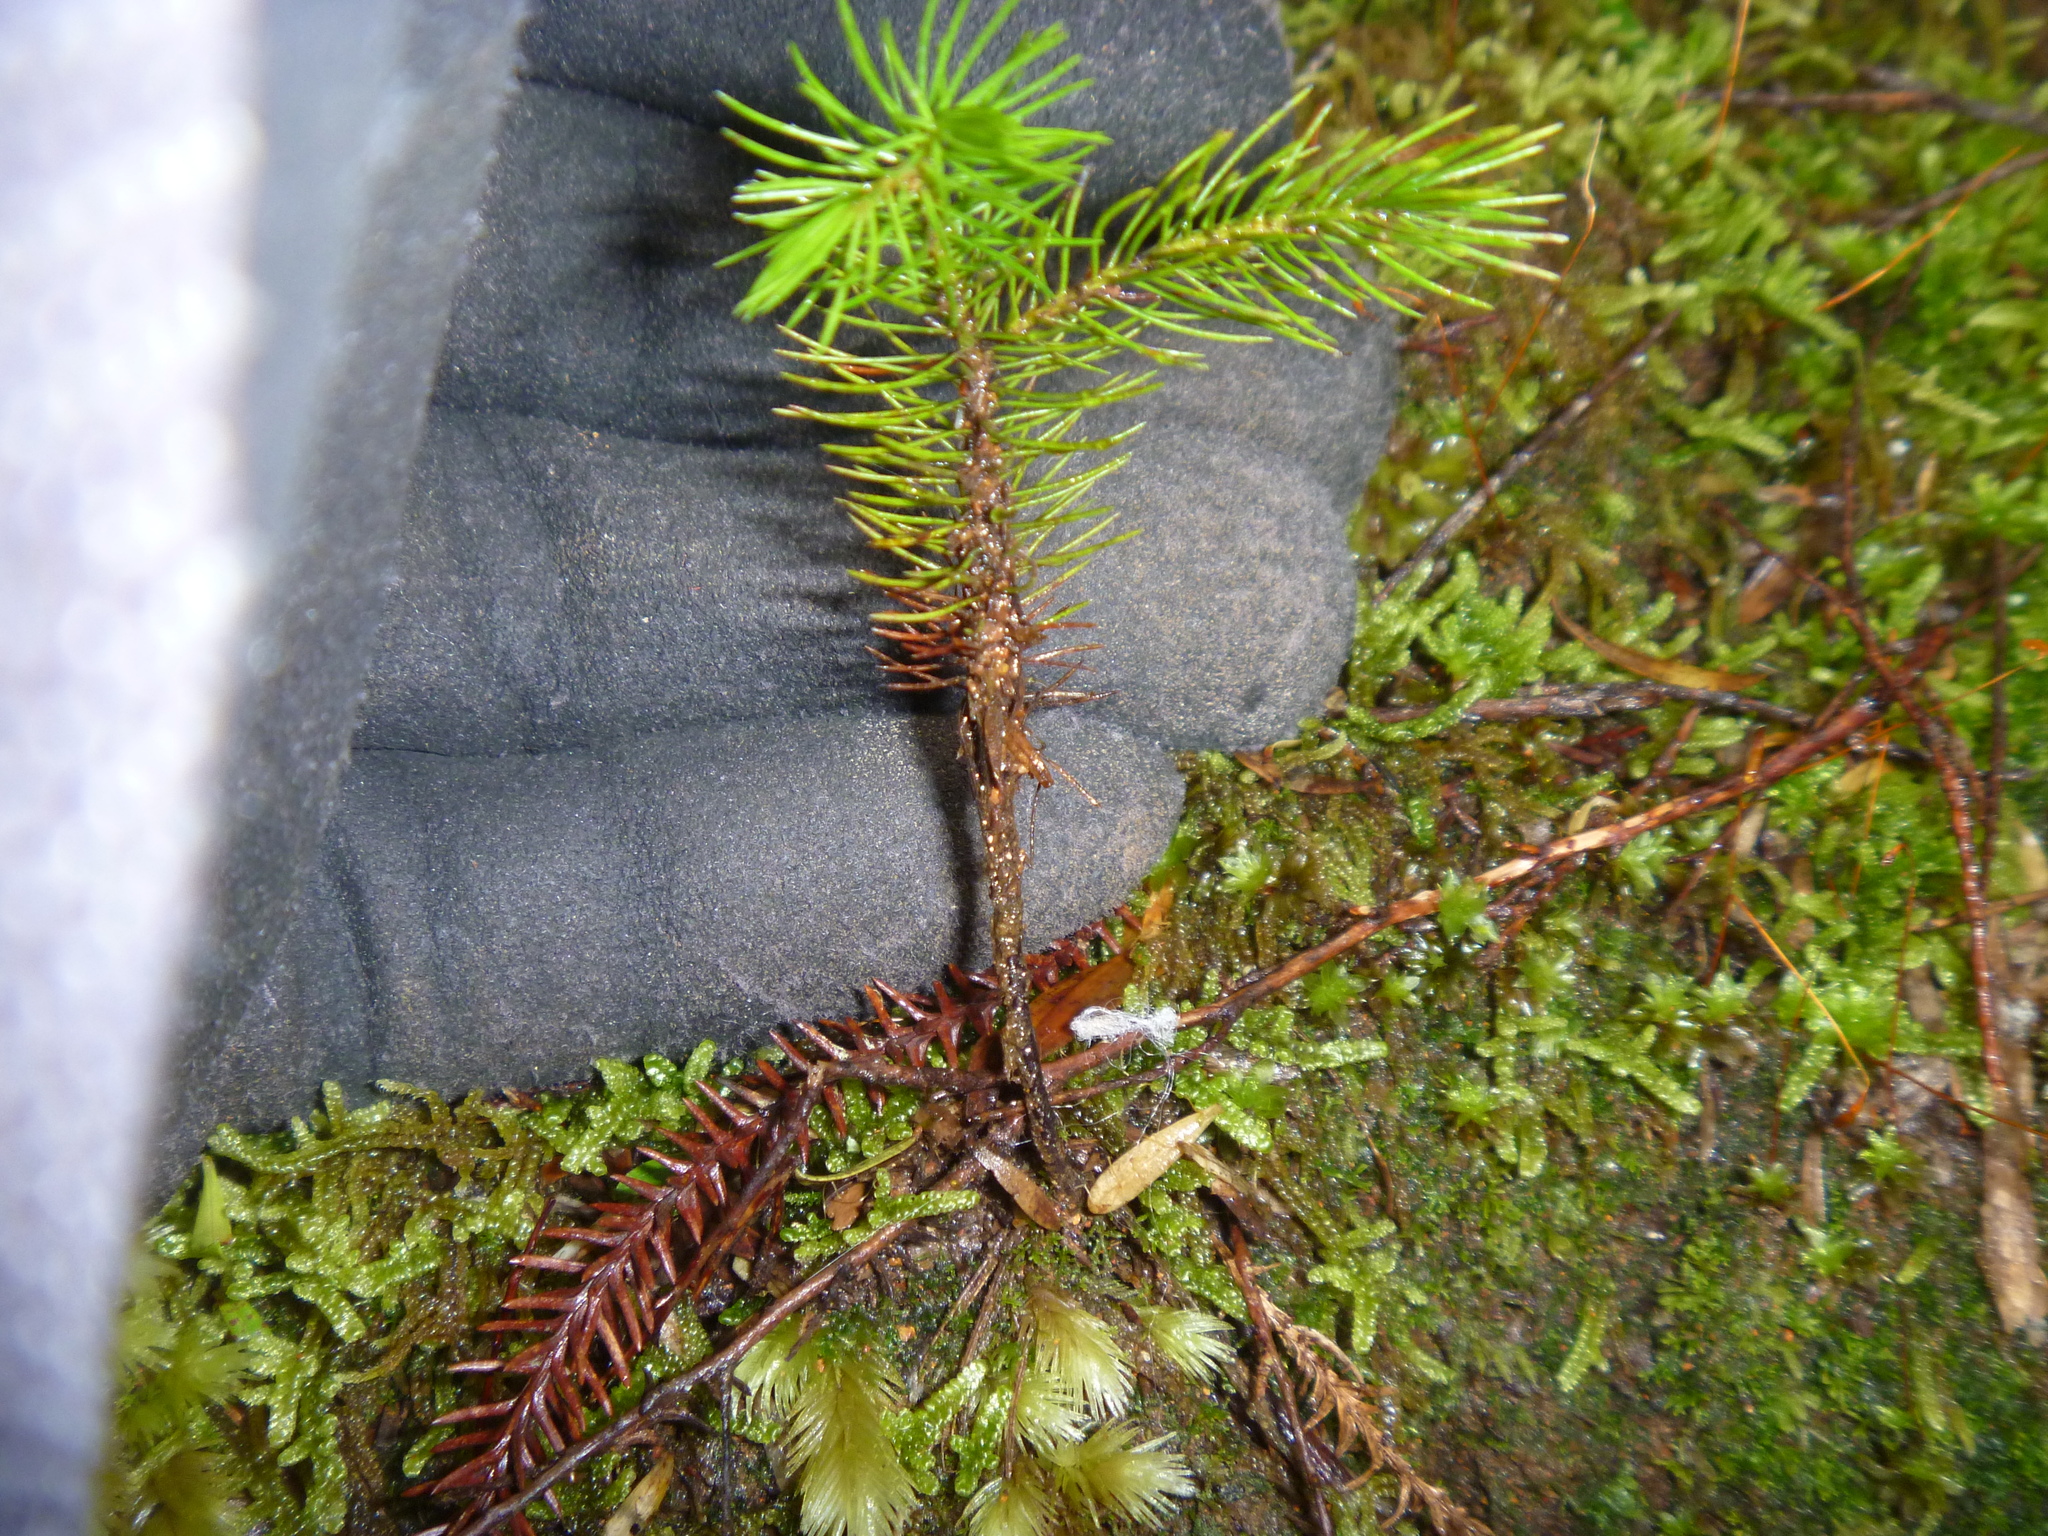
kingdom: Plantae
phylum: Tracheophyta
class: Pinopsida
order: Pinales
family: Podocarpaceae
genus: Dacrydium
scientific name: Dacrydium cupressinum
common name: Red pine
